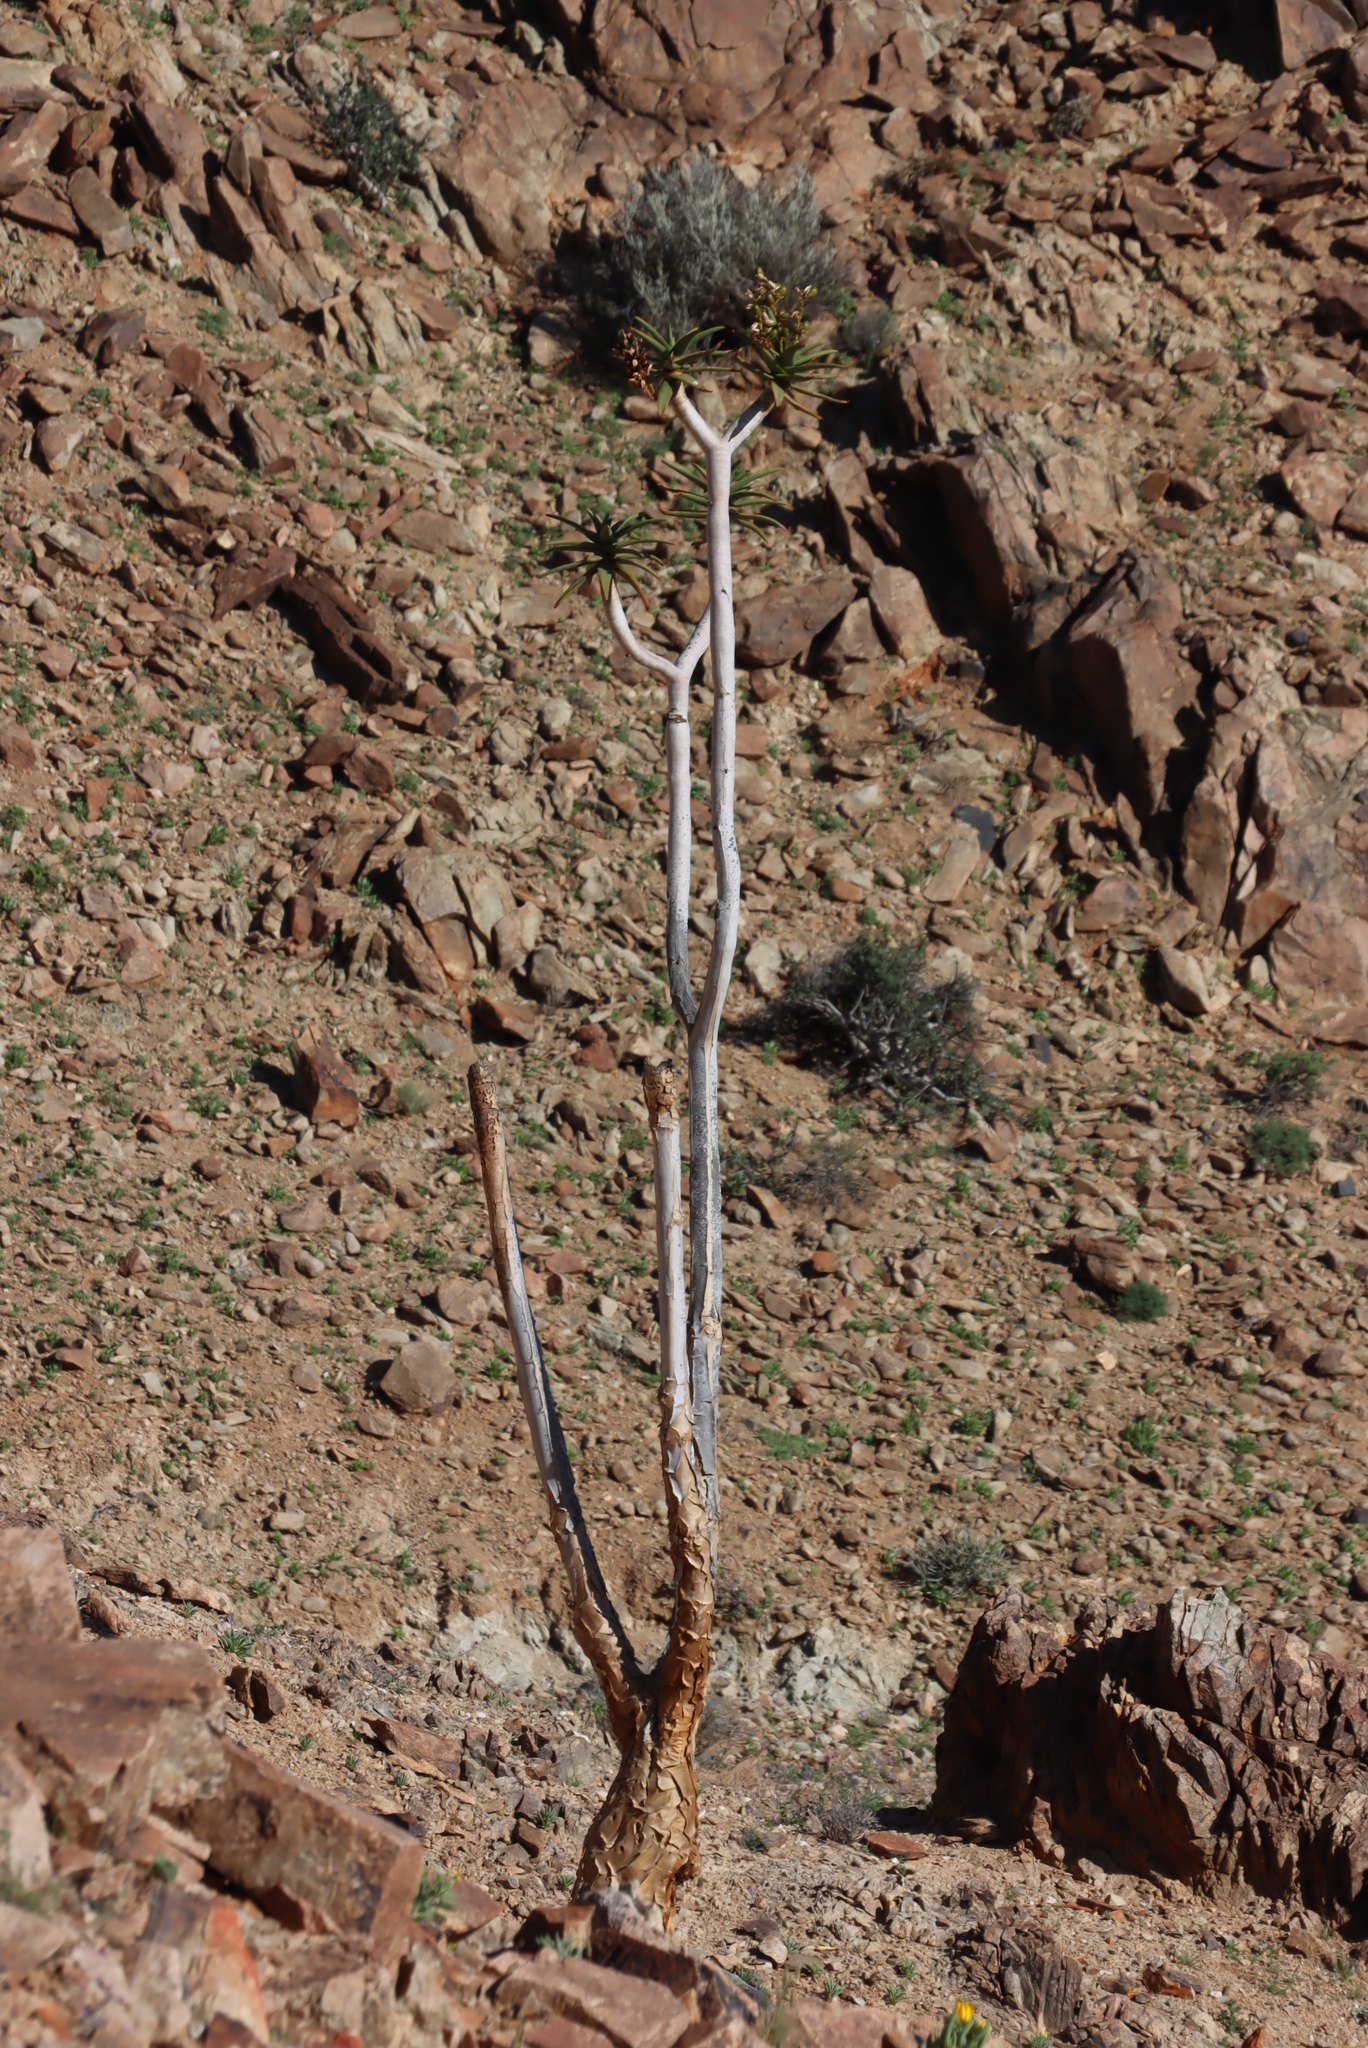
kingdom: Plantae
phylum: Tracheophyta
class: Liliopsida
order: Asparagales
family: Asphodelaceae
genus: Aloidendron
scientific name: Aloidendron dichotomum
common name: Quiver tree
